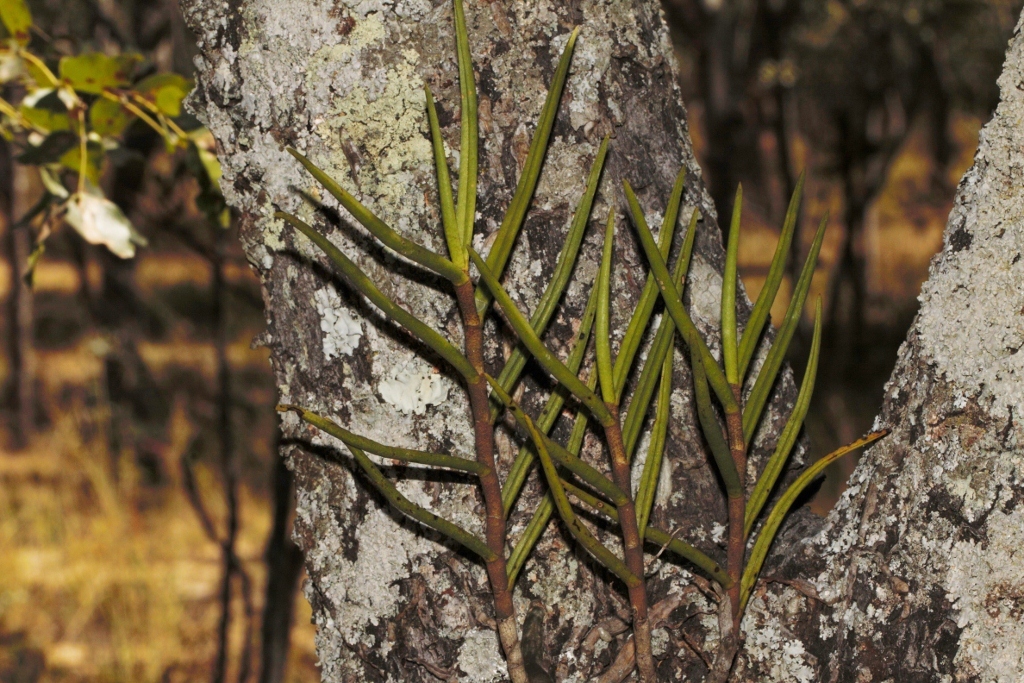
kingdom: Plantae
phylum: Tracheophyta
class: Liliopsida
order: Asparagales
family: Orchidaceae
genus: Tridactyle
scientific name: Tridactyle tridentata
